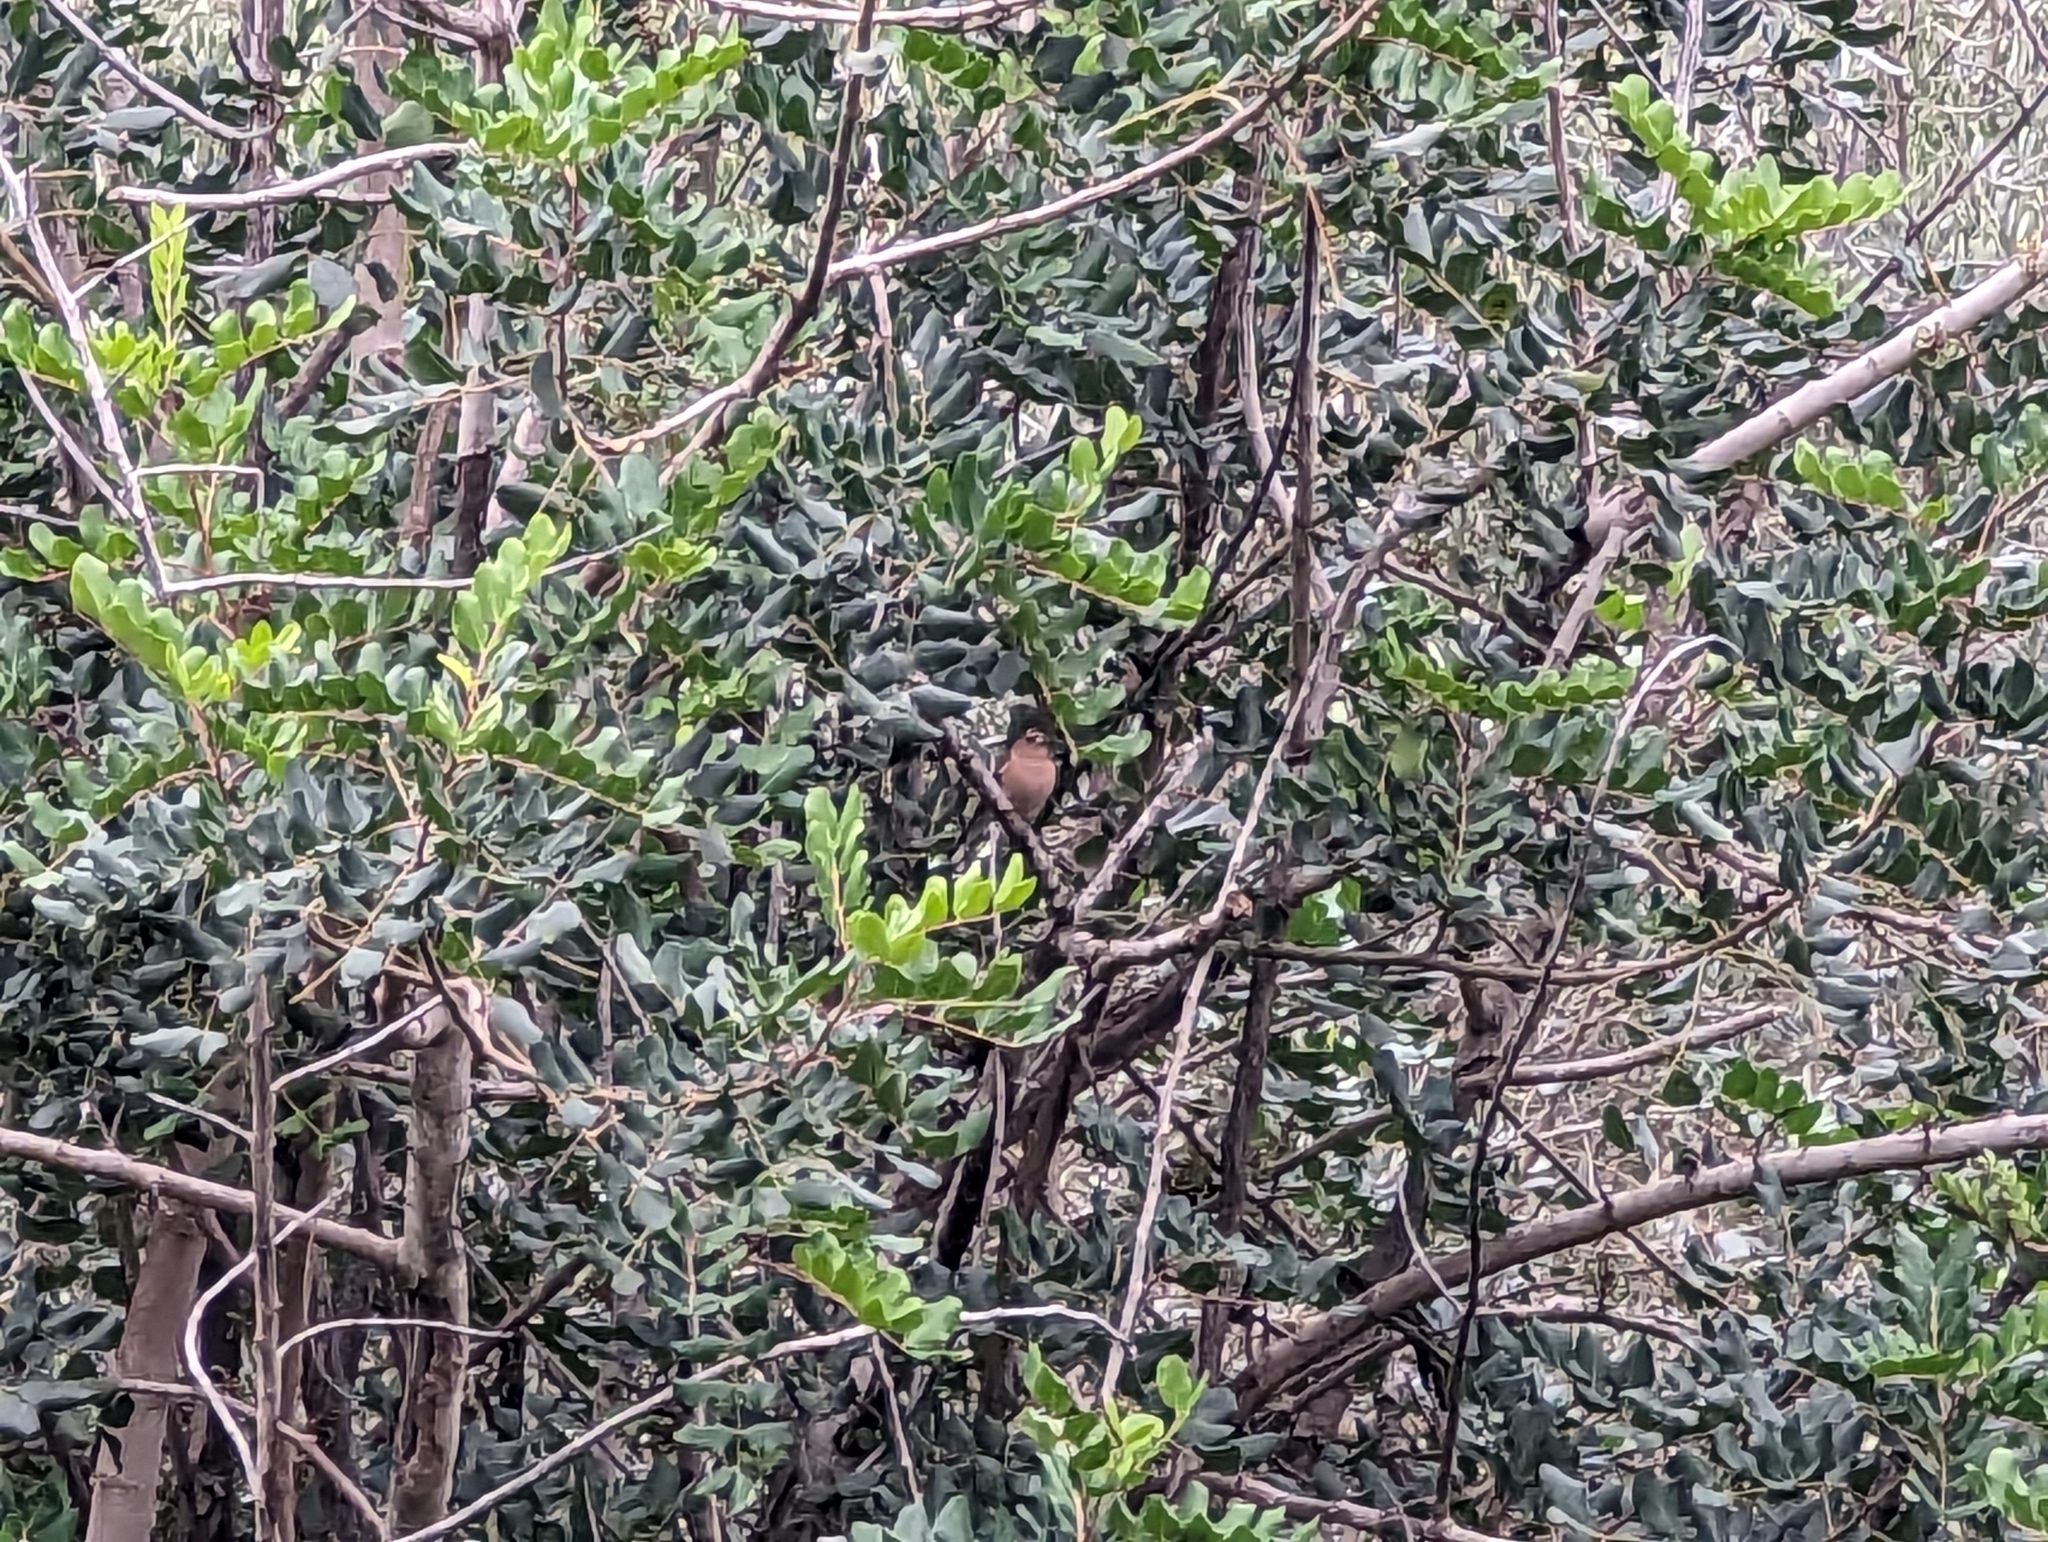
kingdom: Animalia
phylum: Chordata
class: Aves
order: Passeriformes
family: Fringillidae
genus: Fringilla
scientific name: Fringilla coelebs
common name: Common chaffinch
